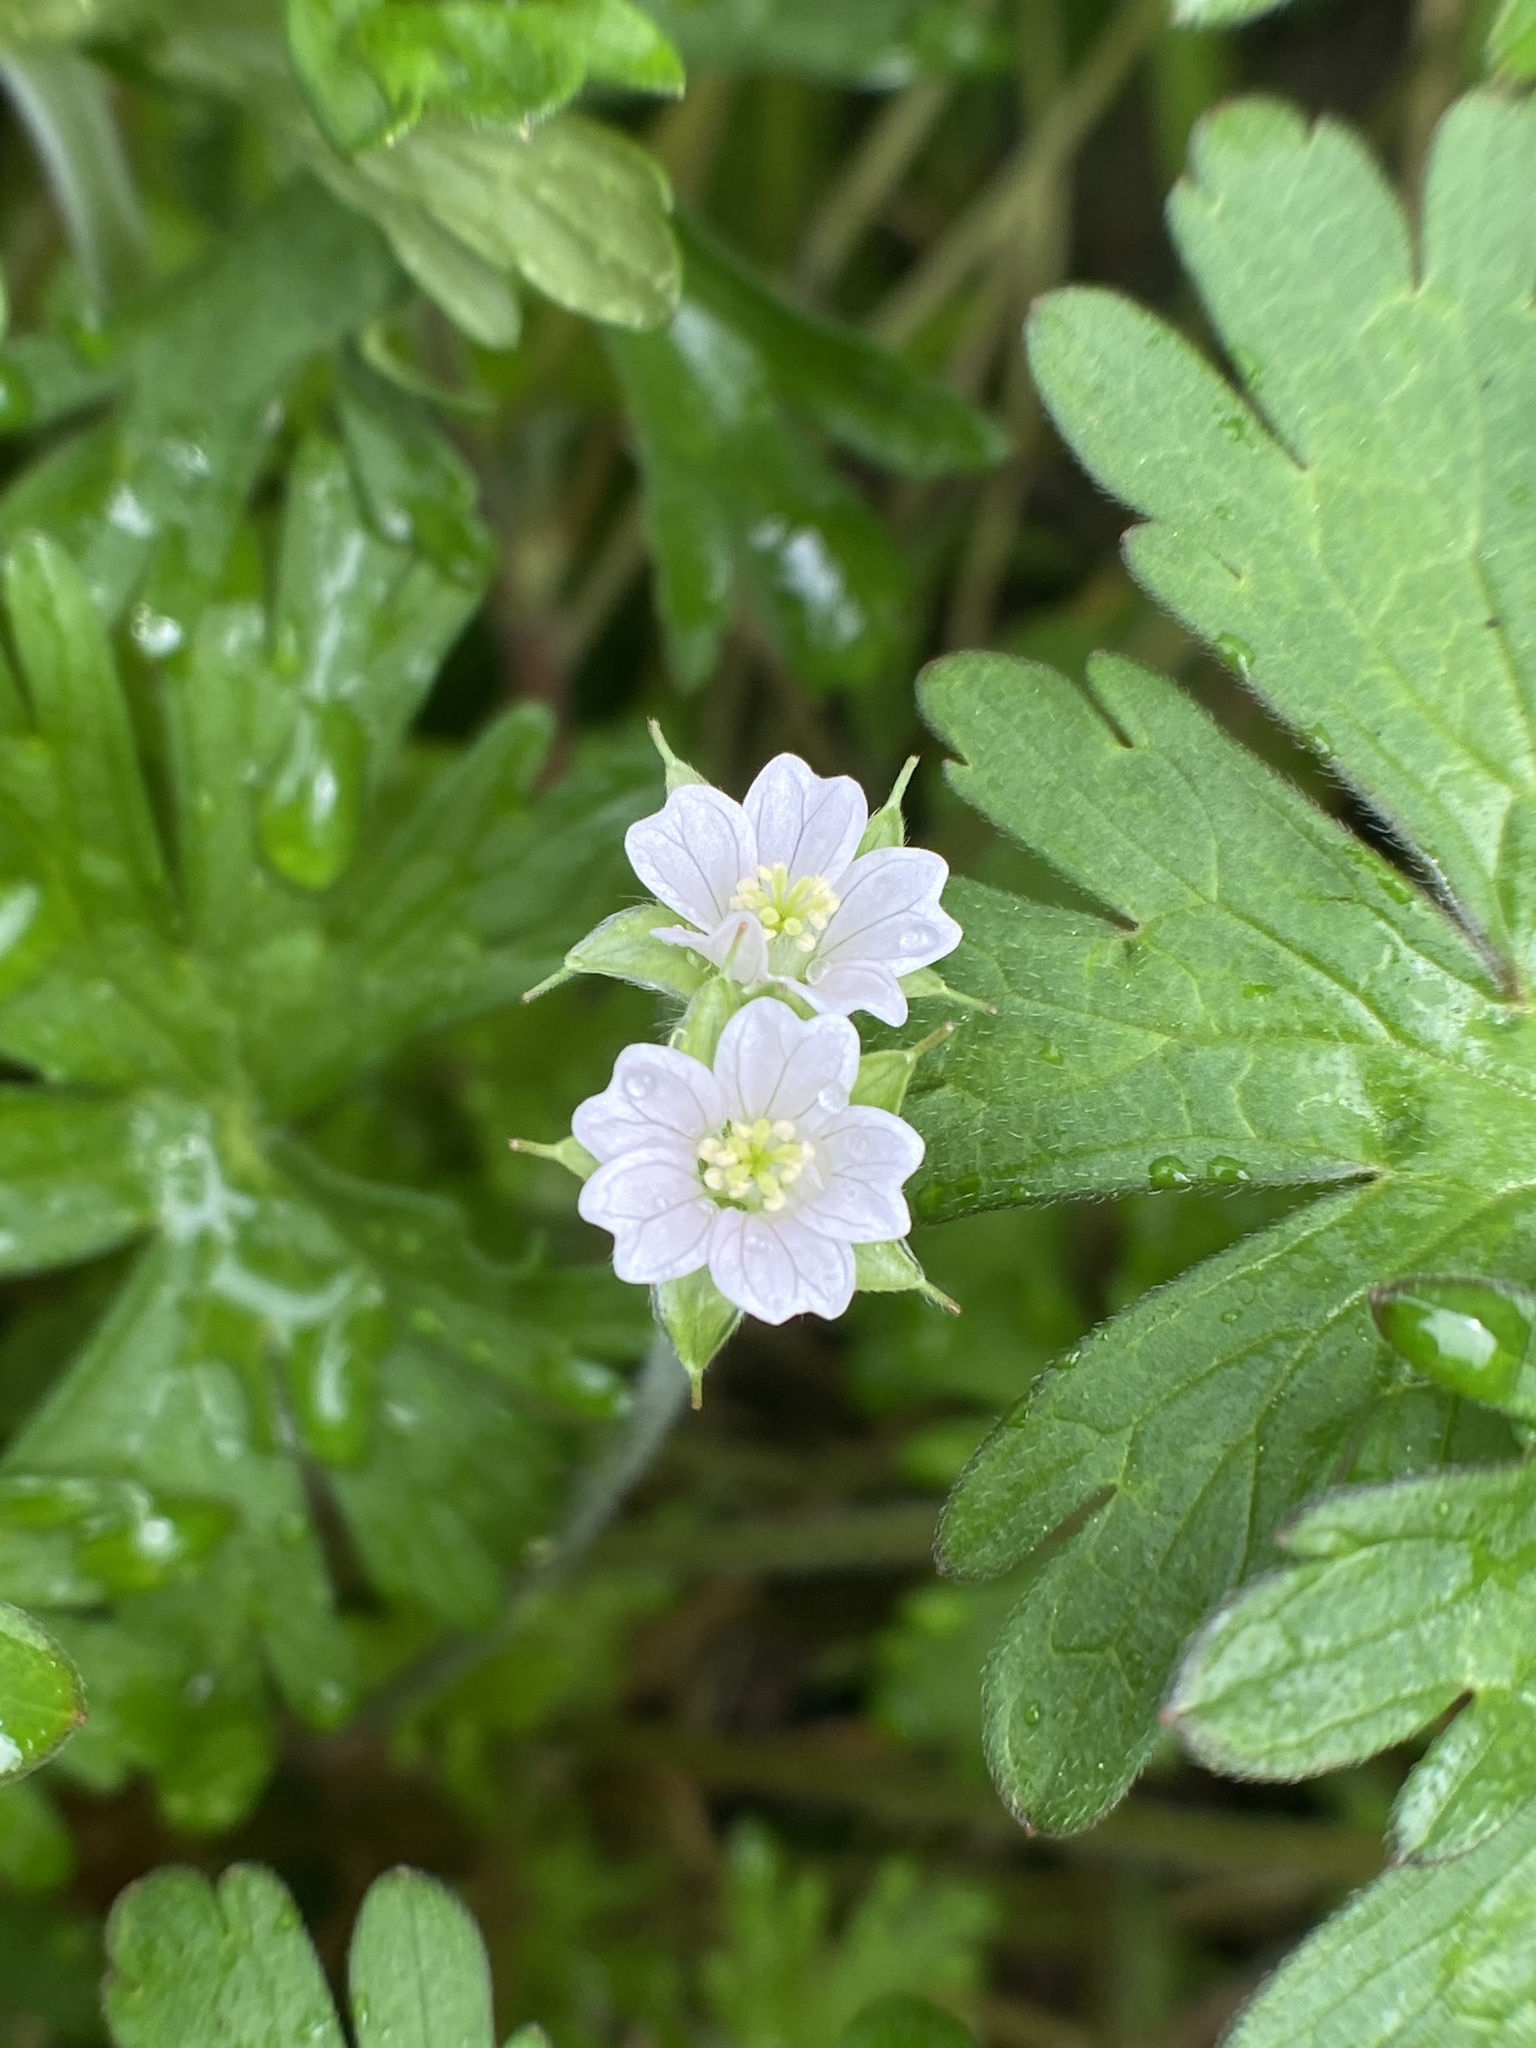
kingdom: Plantae
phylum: Tracheophyta
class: Magnoliopsida
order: Geraniales
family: Geraniaceae
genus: Geranium
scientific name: Geranium carolinianum
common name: Carolina crane's-bill
